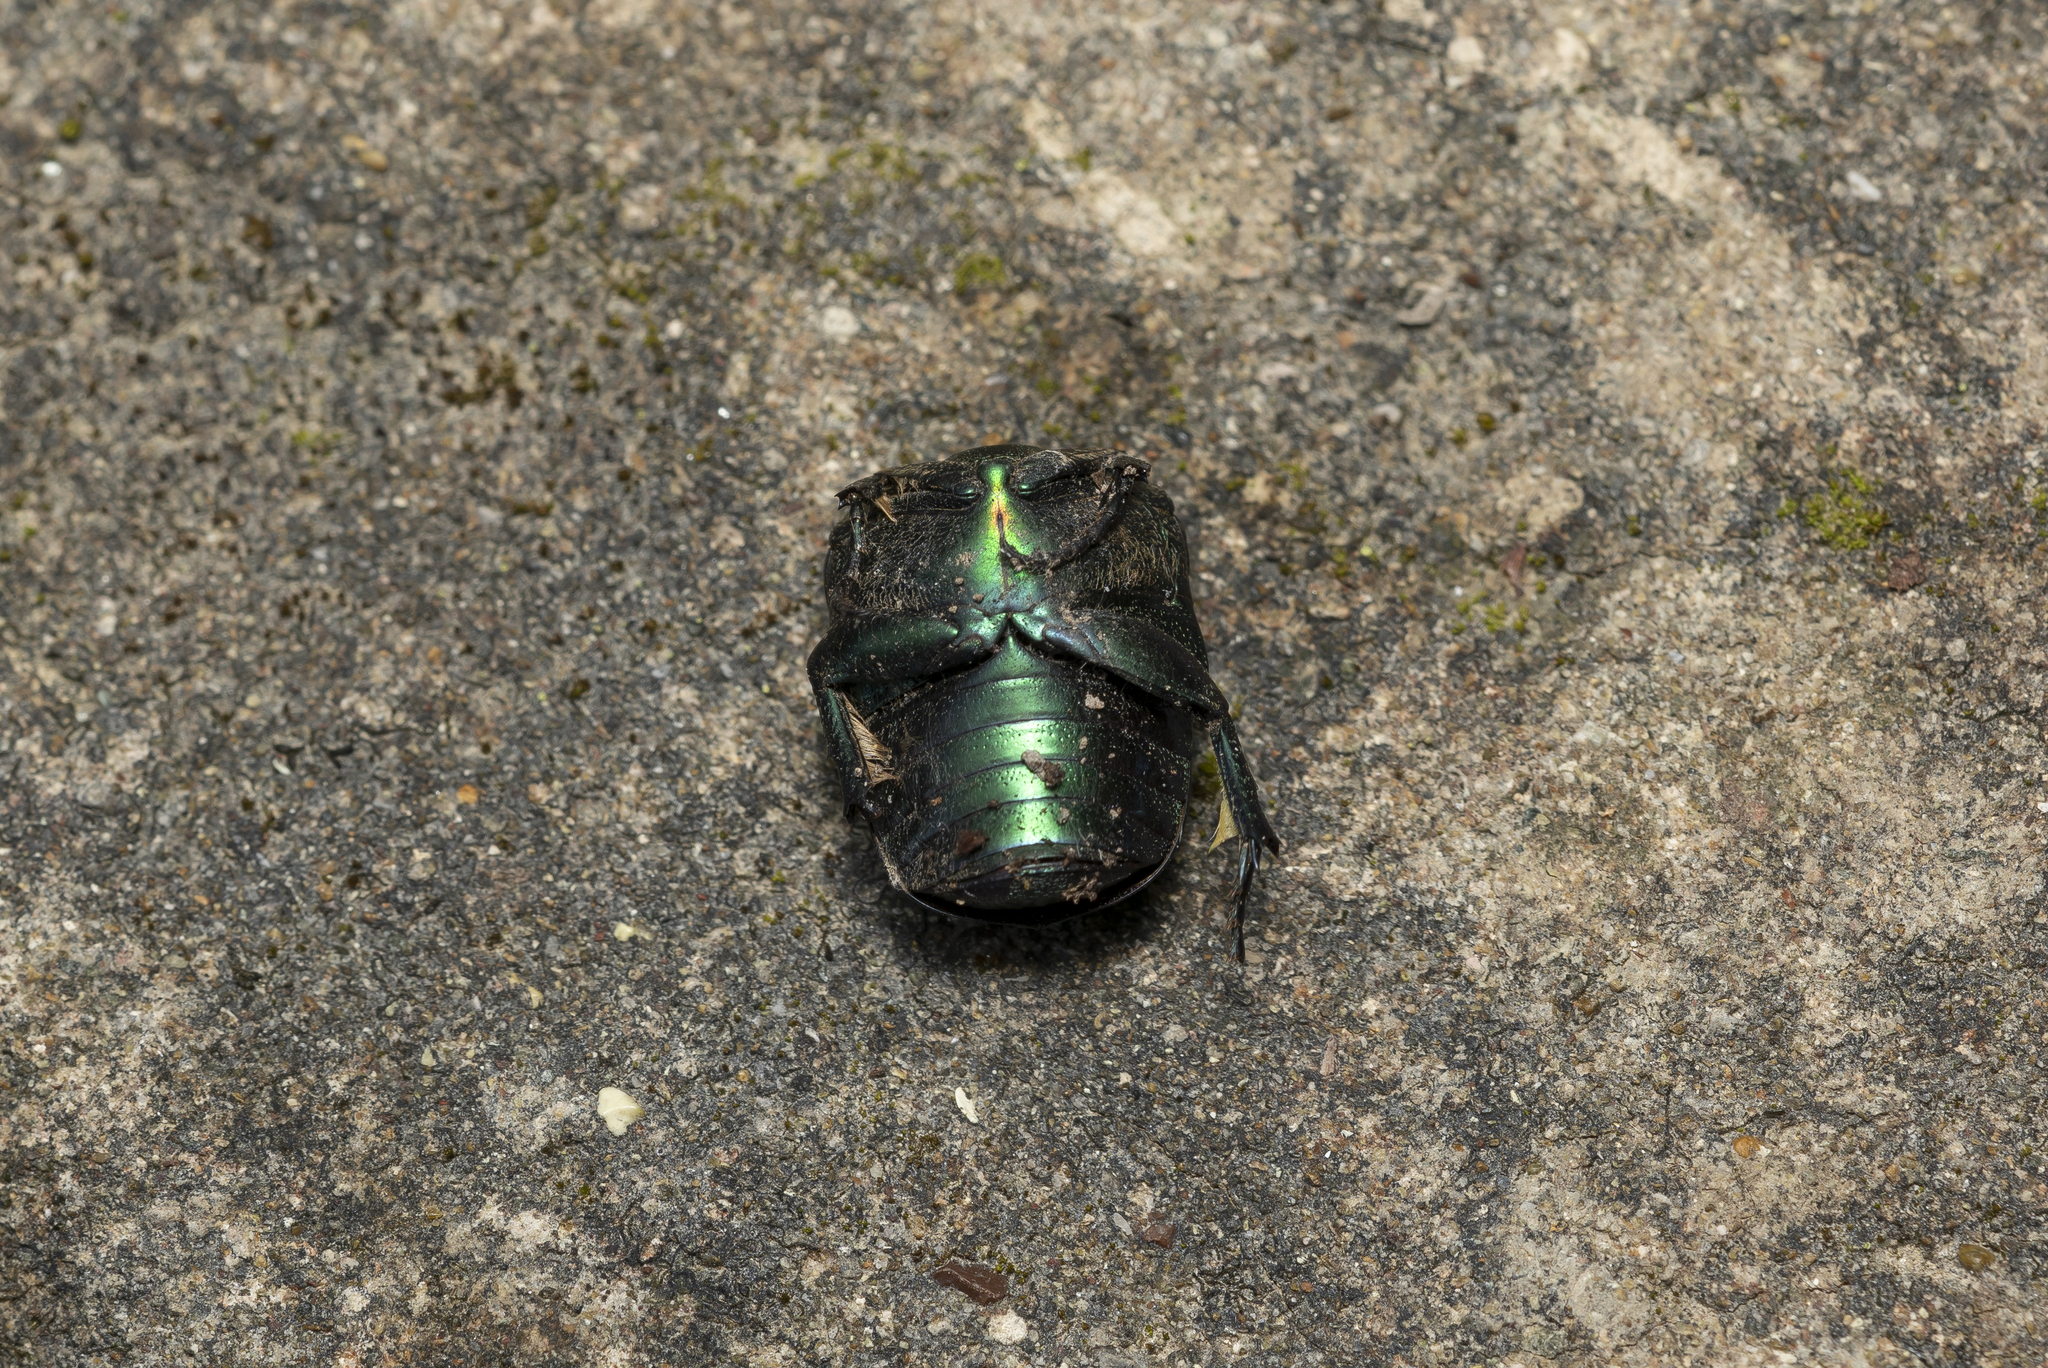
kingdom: Animalia
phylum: Arthropoda
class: Insecta
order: Coleoptera
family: Scarabaeidae
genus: Protaetia
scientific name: Protaetia
